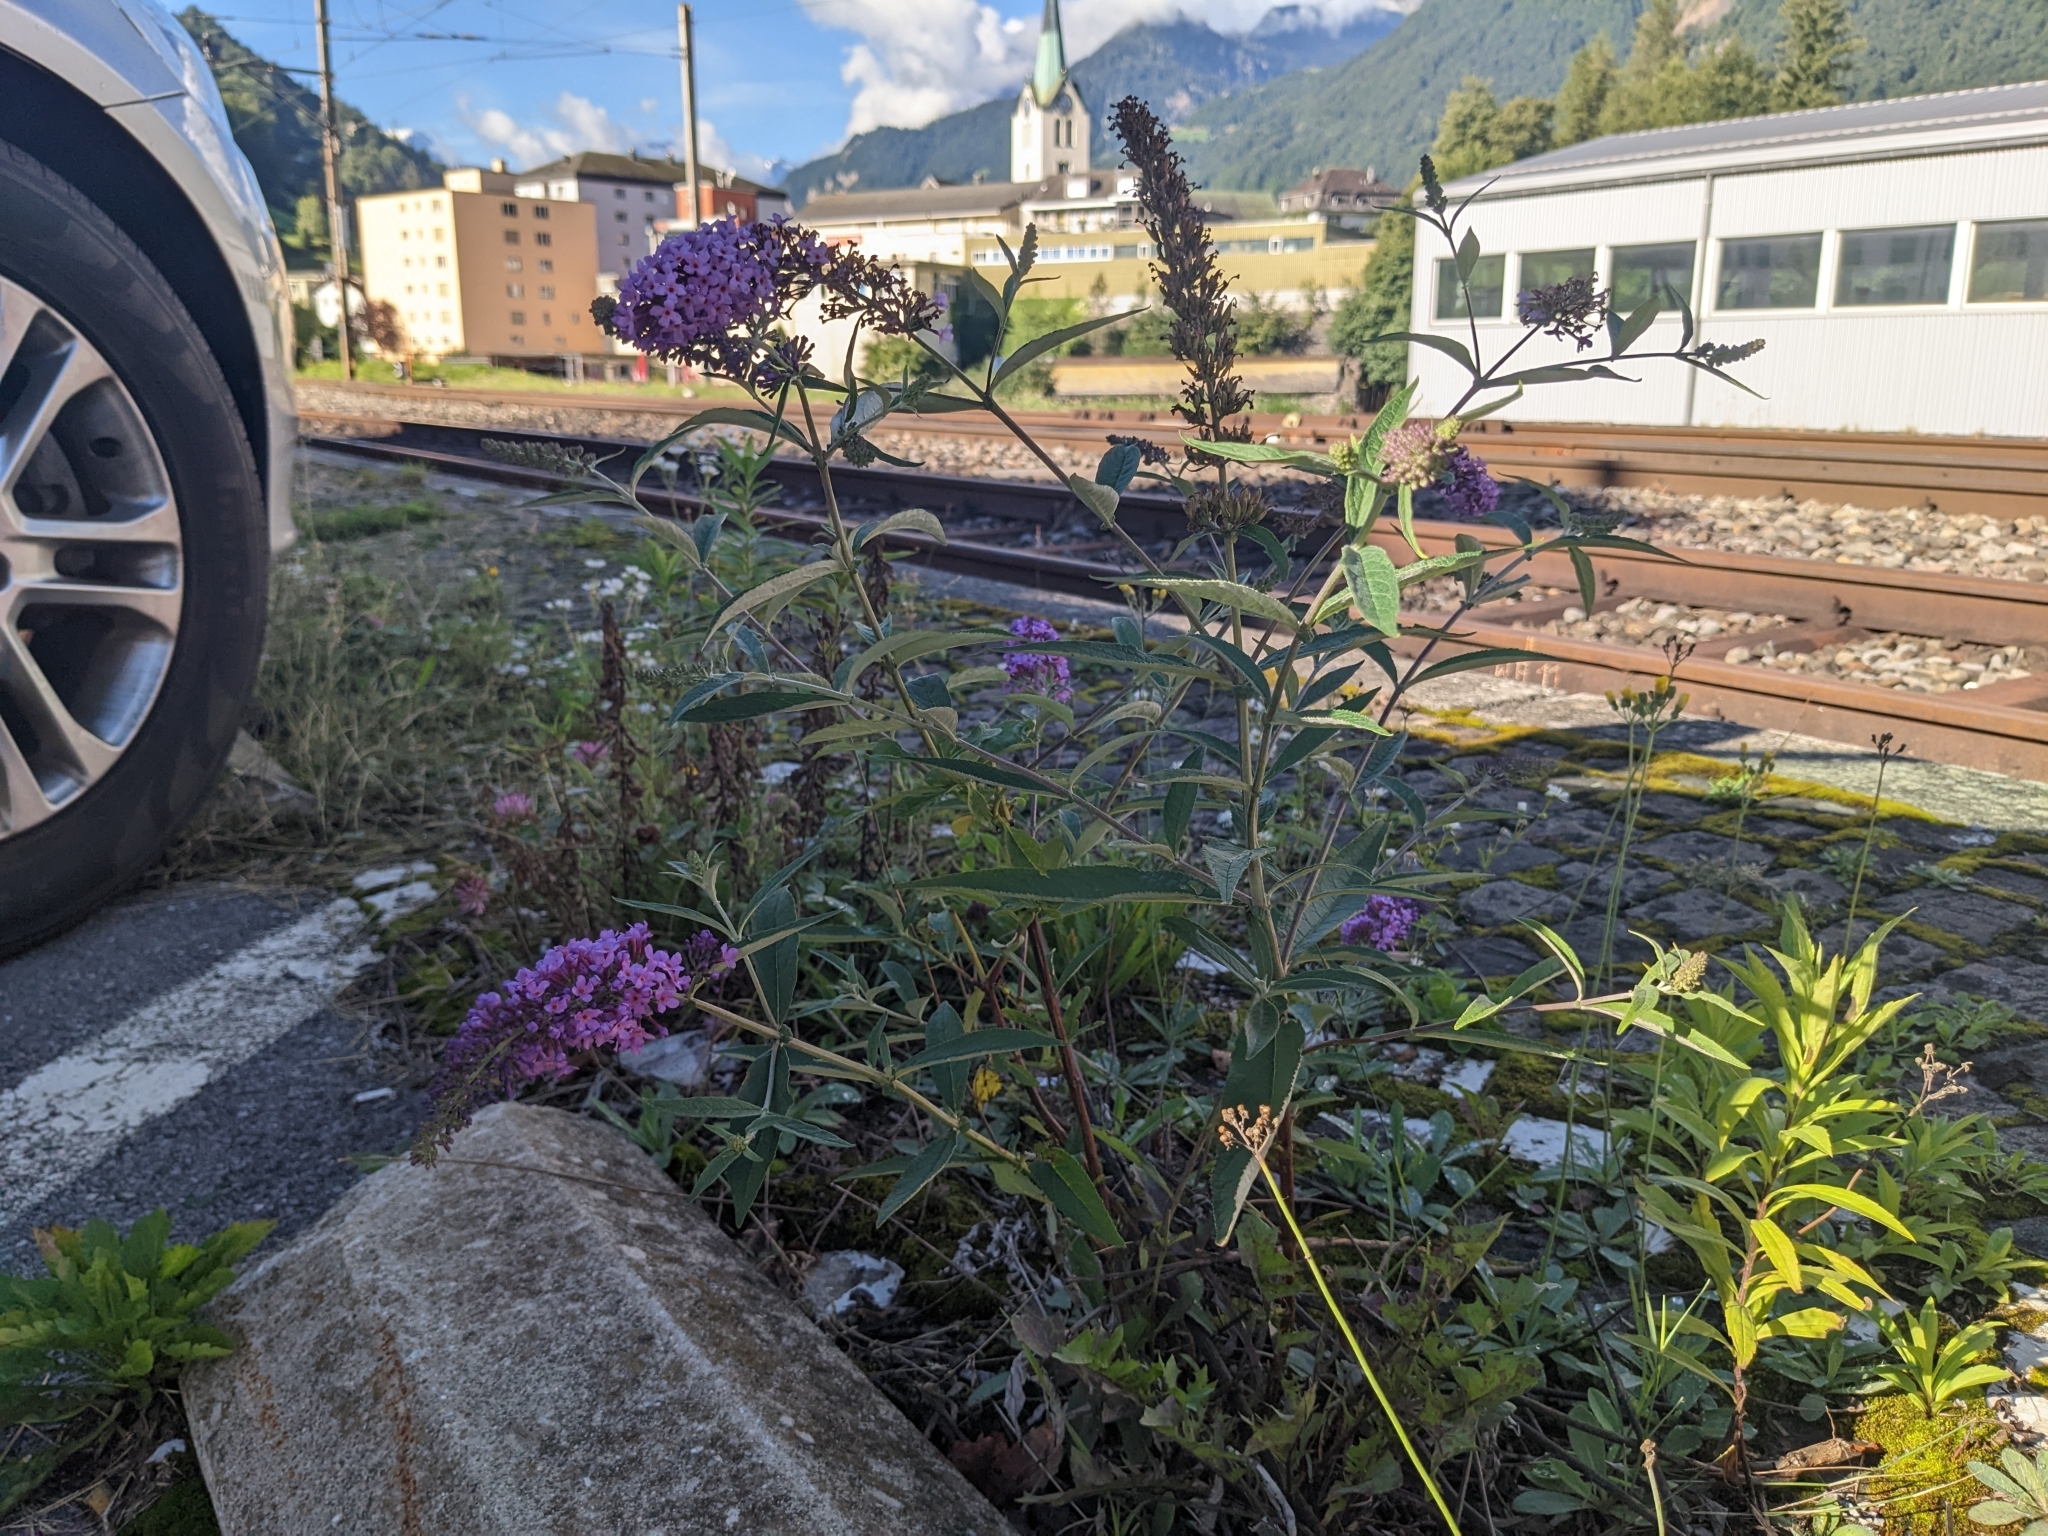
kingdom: Plantae
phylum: Tracheophyta
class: Magnoliopsida
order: Lamiales
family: Scrophulariaceae
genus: Buddleja
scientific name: Buddleja davidii
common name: Butterfly-bush
